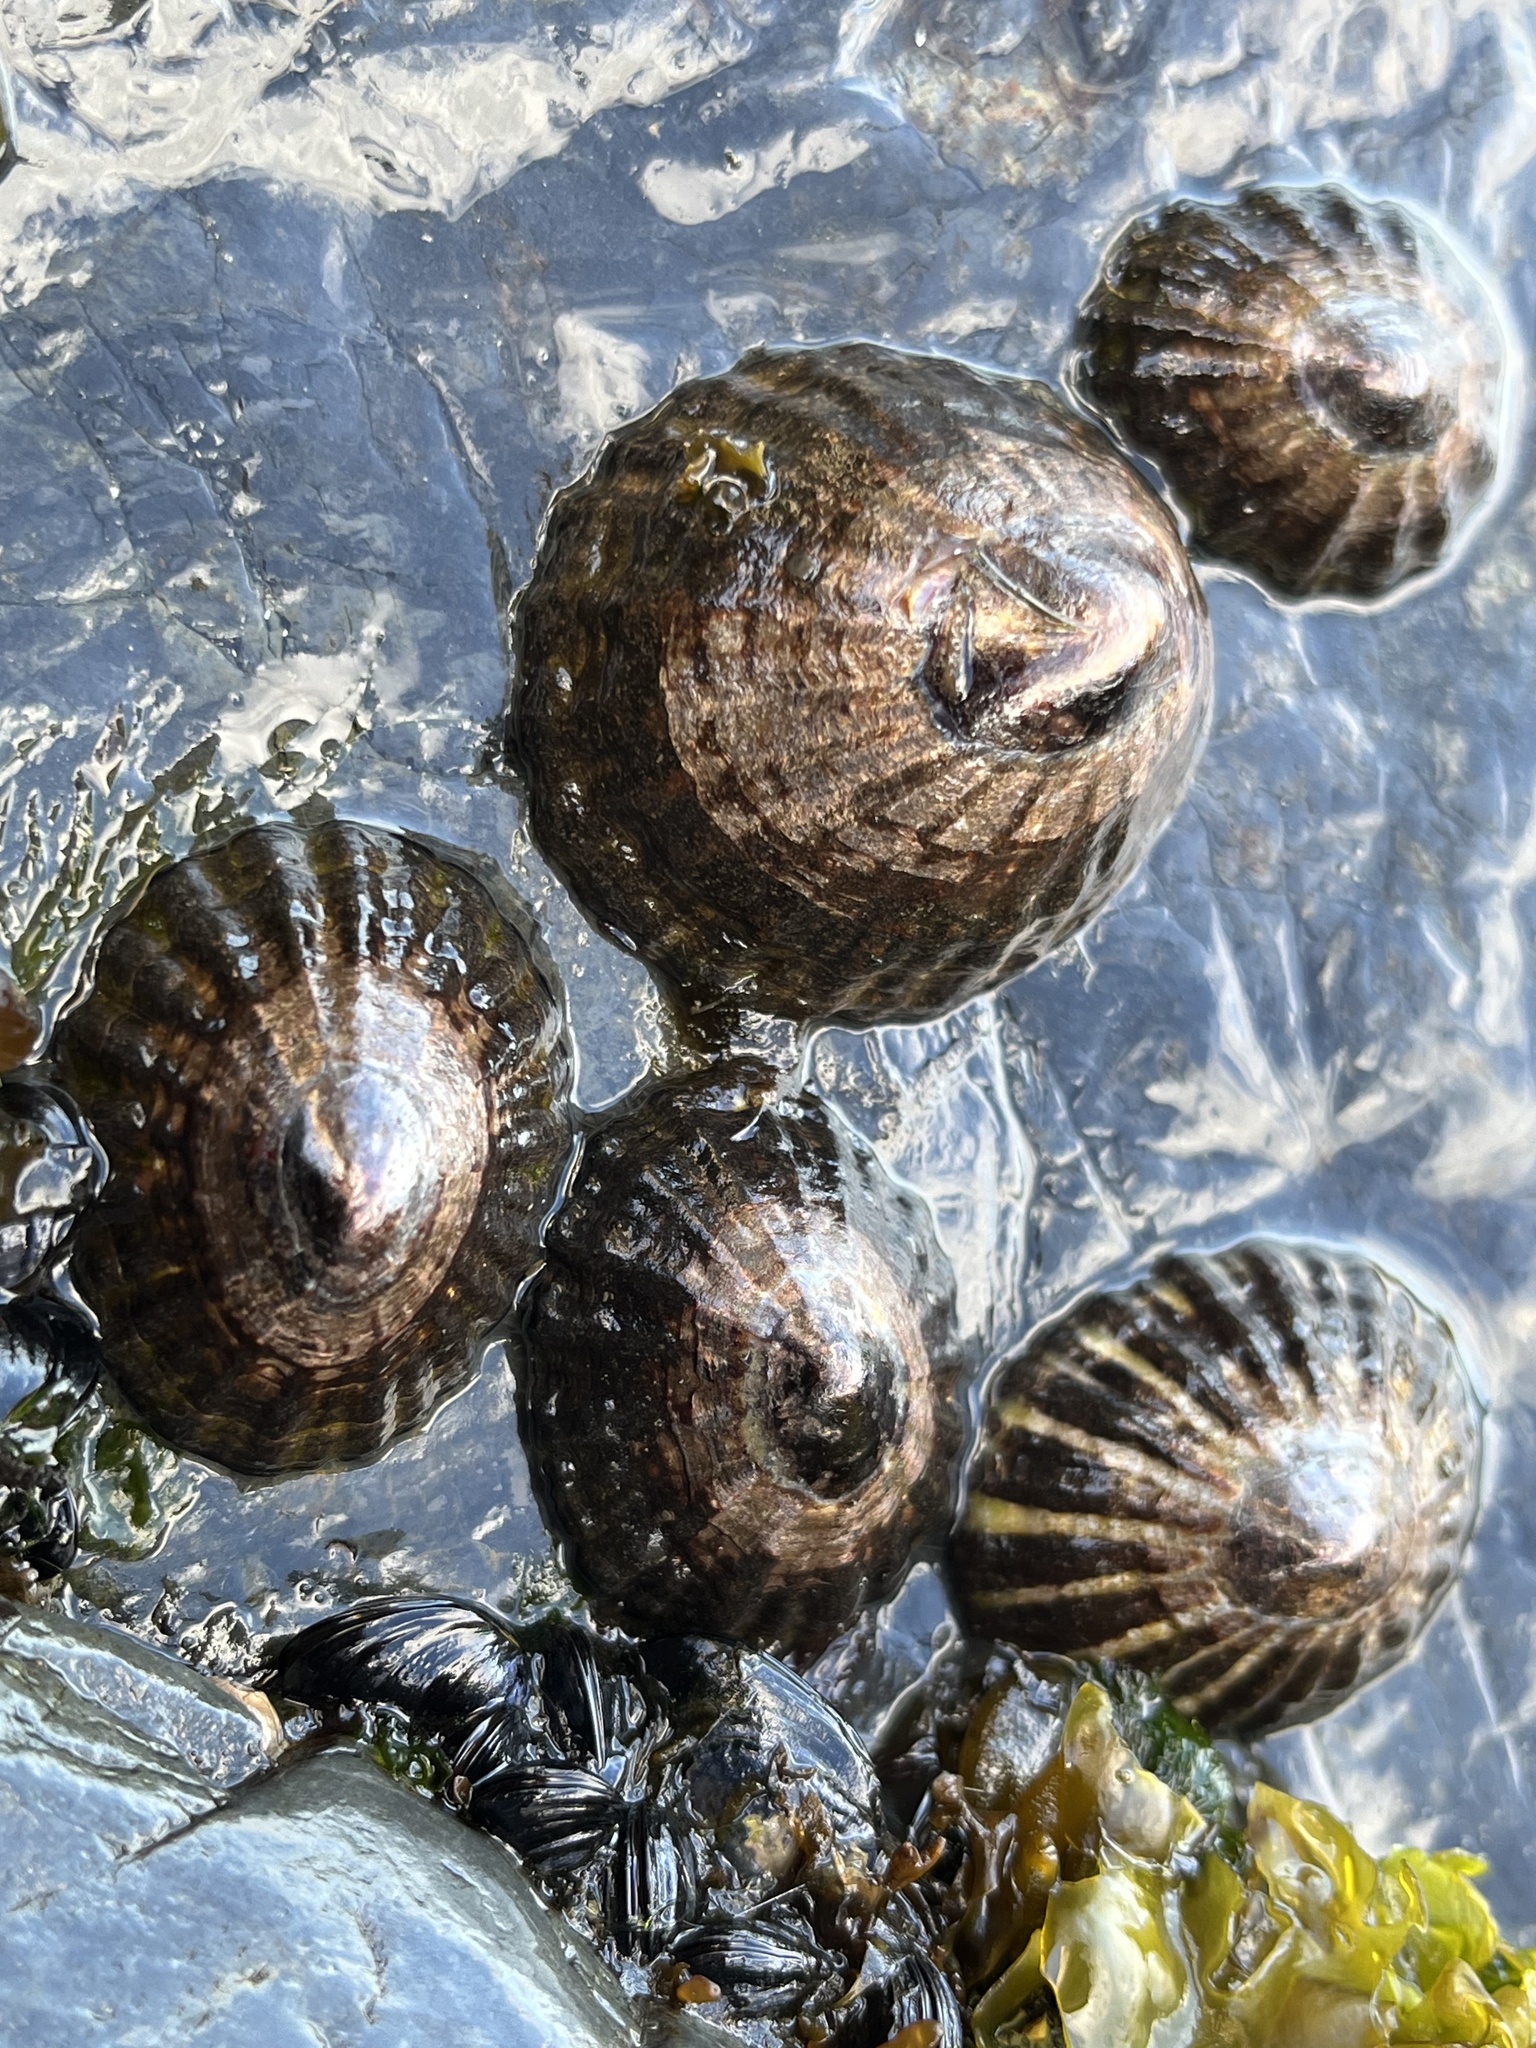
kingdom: Animalia
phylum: Mollusca
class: Gastropoda
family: Nacellidae
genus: Nacella
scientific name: Nacella magellanica
